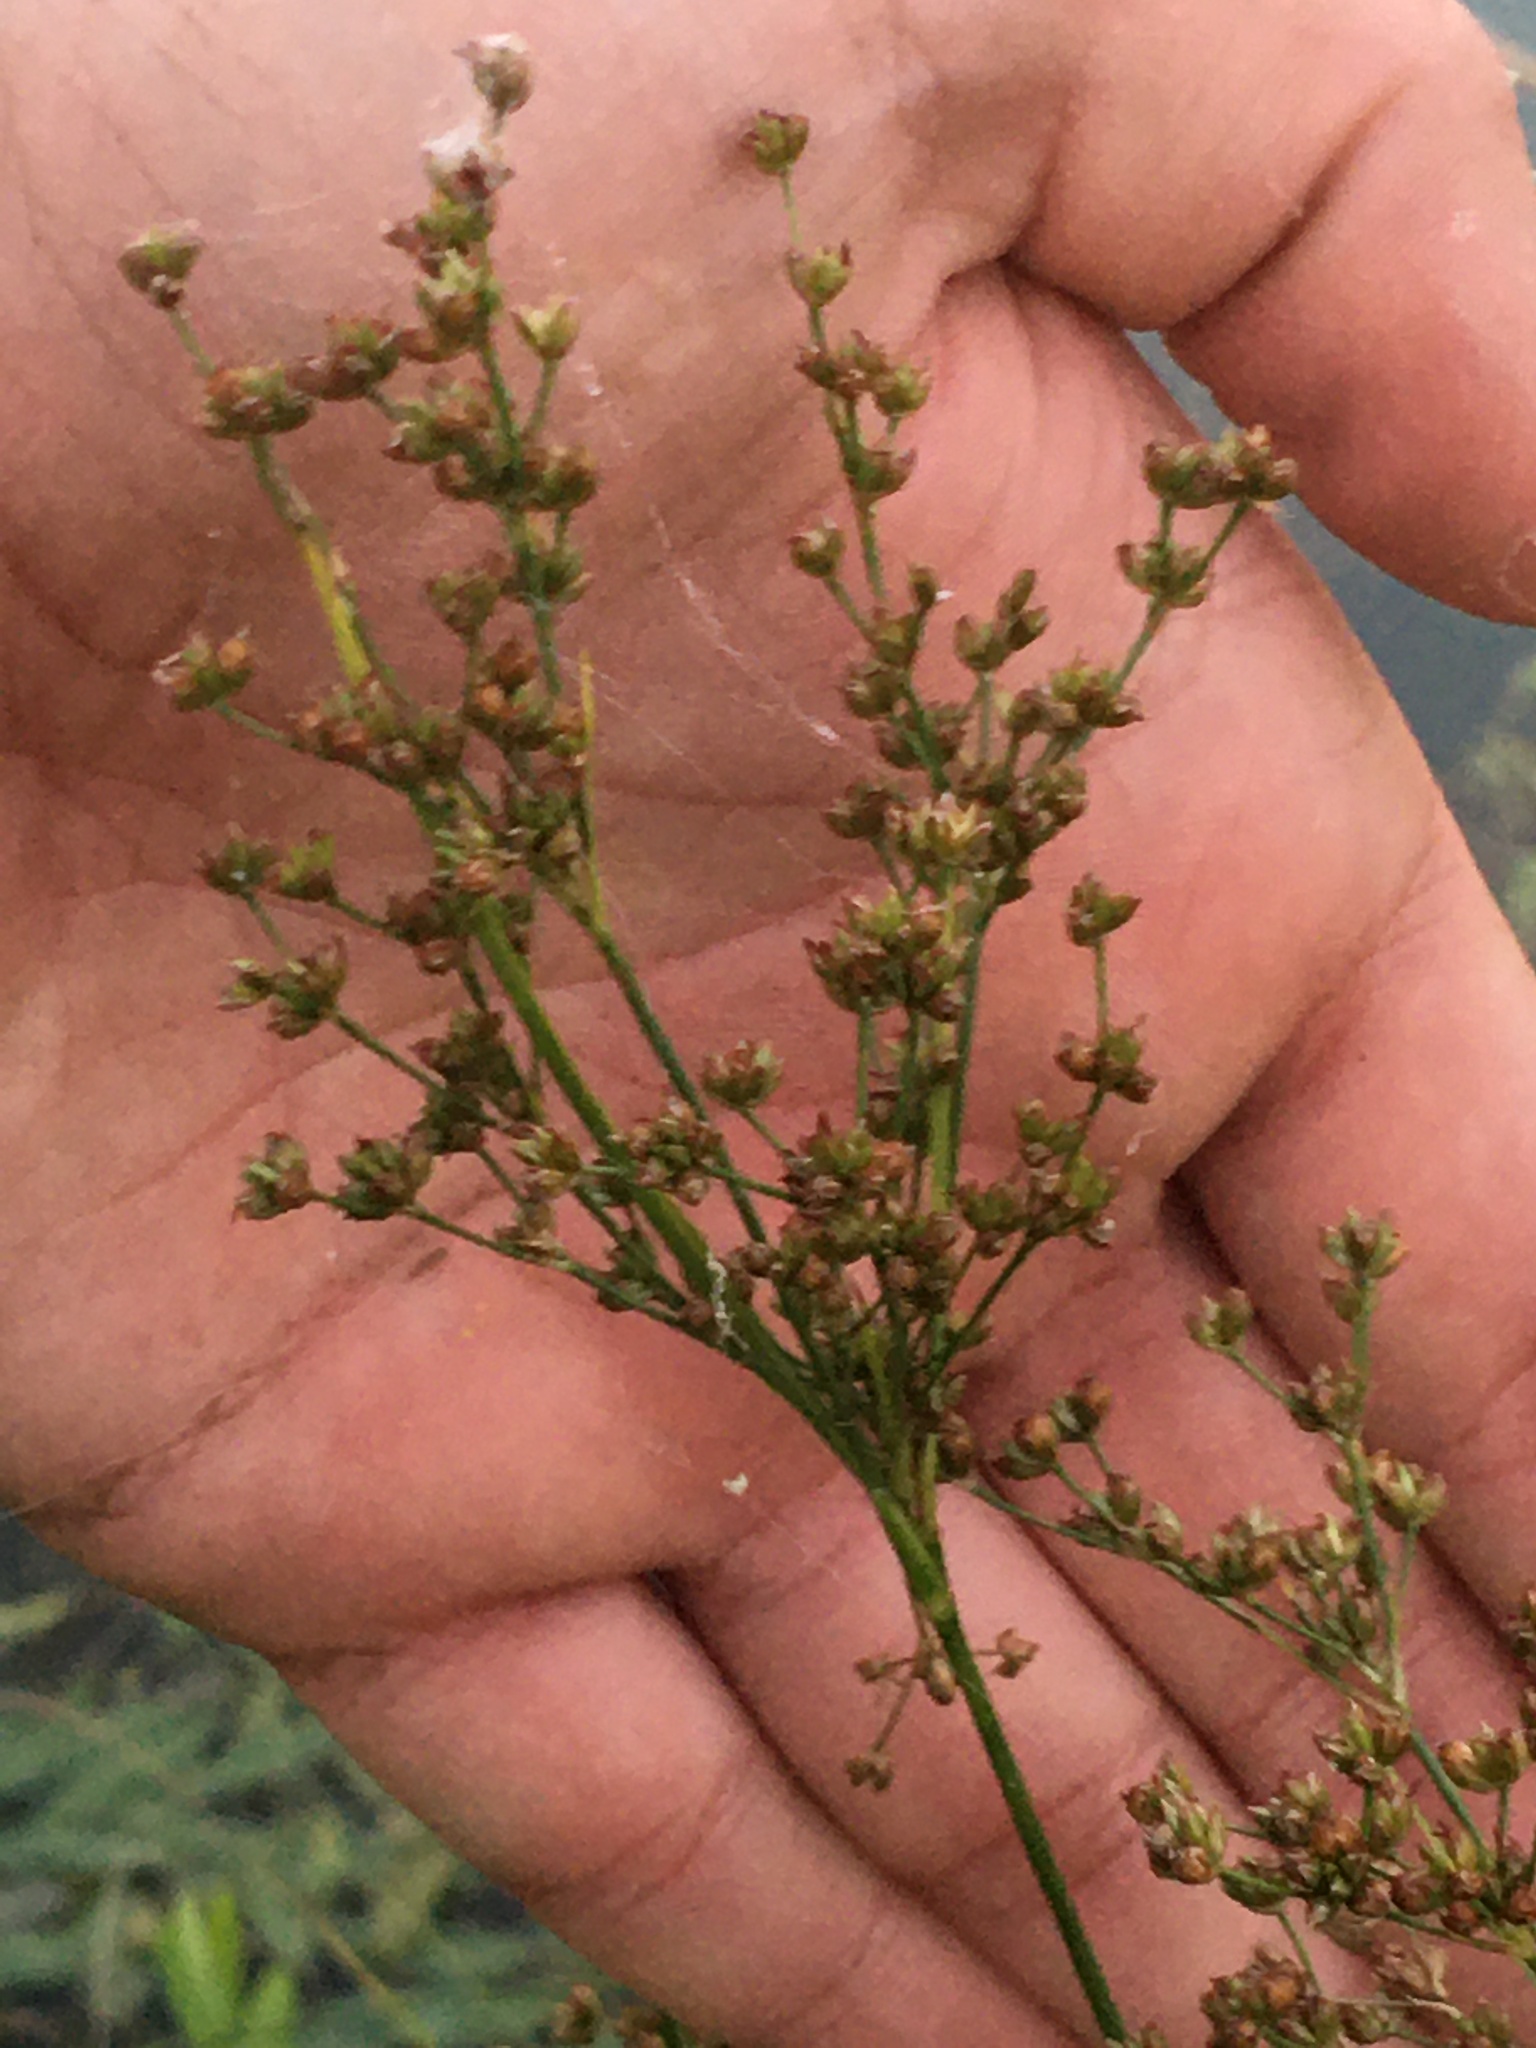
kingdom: Plantae
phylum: Tracheophyta
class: Liliopsida
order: Poales
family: Juncaceae
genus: Juncus
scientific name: Juncus marginatus
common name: Grass-leaf rush
